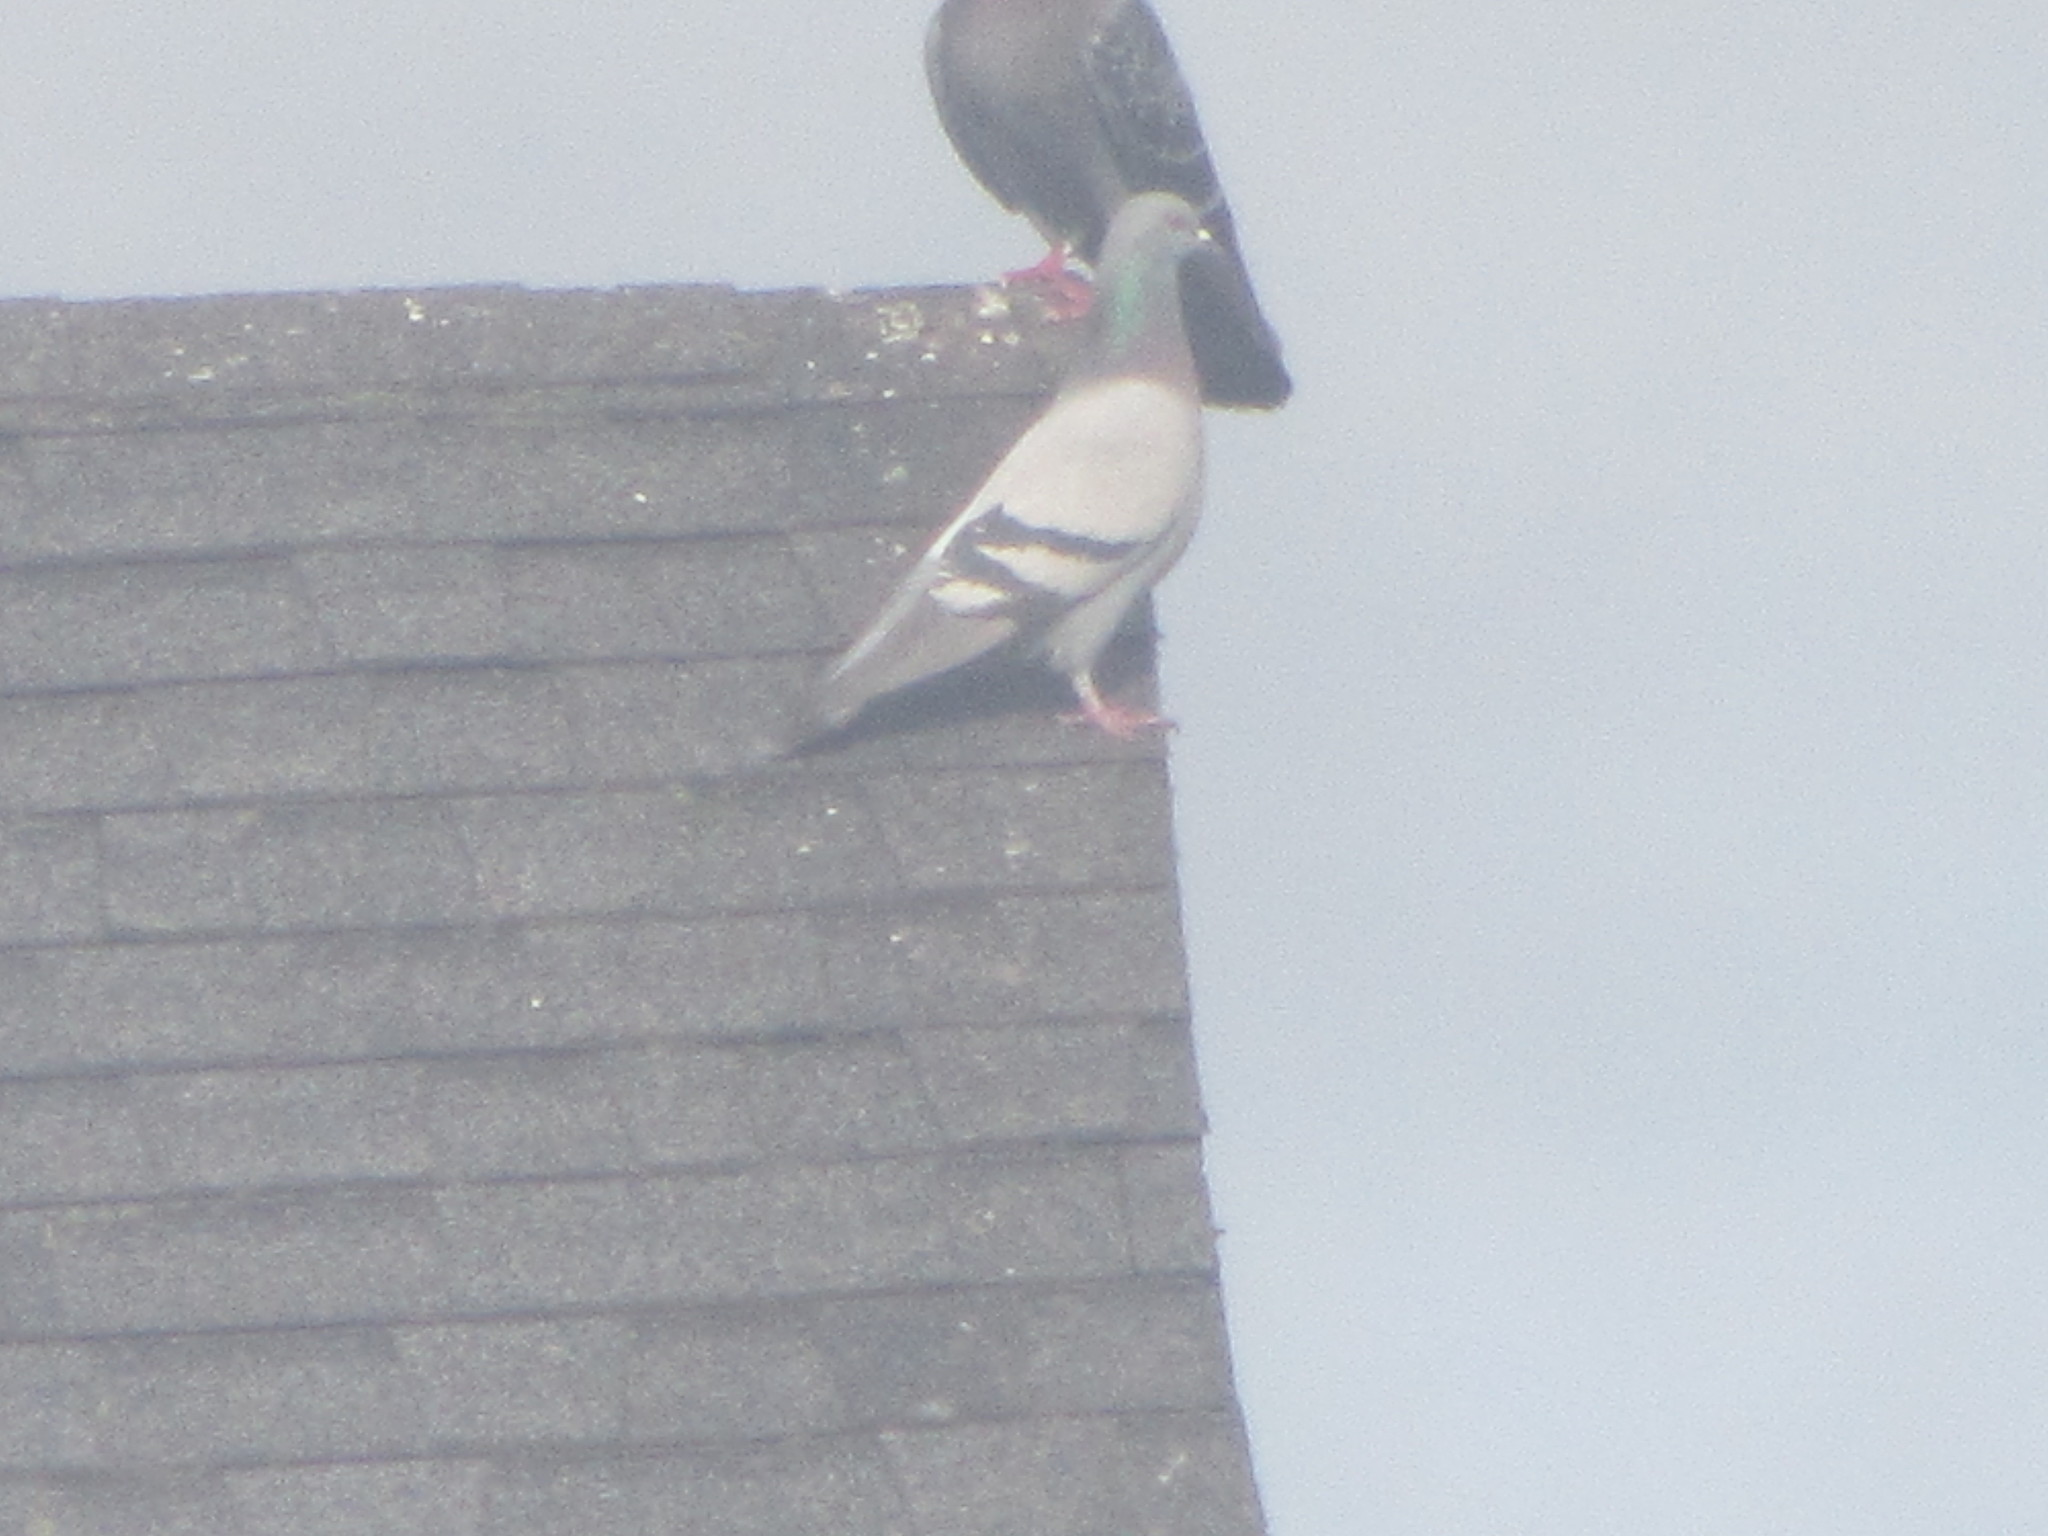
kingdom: Animalia
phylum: Chordata
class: Aves
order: Columbiformes
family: Columbidae
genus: Columba
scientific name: Columba livia
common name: Rock pigeon
